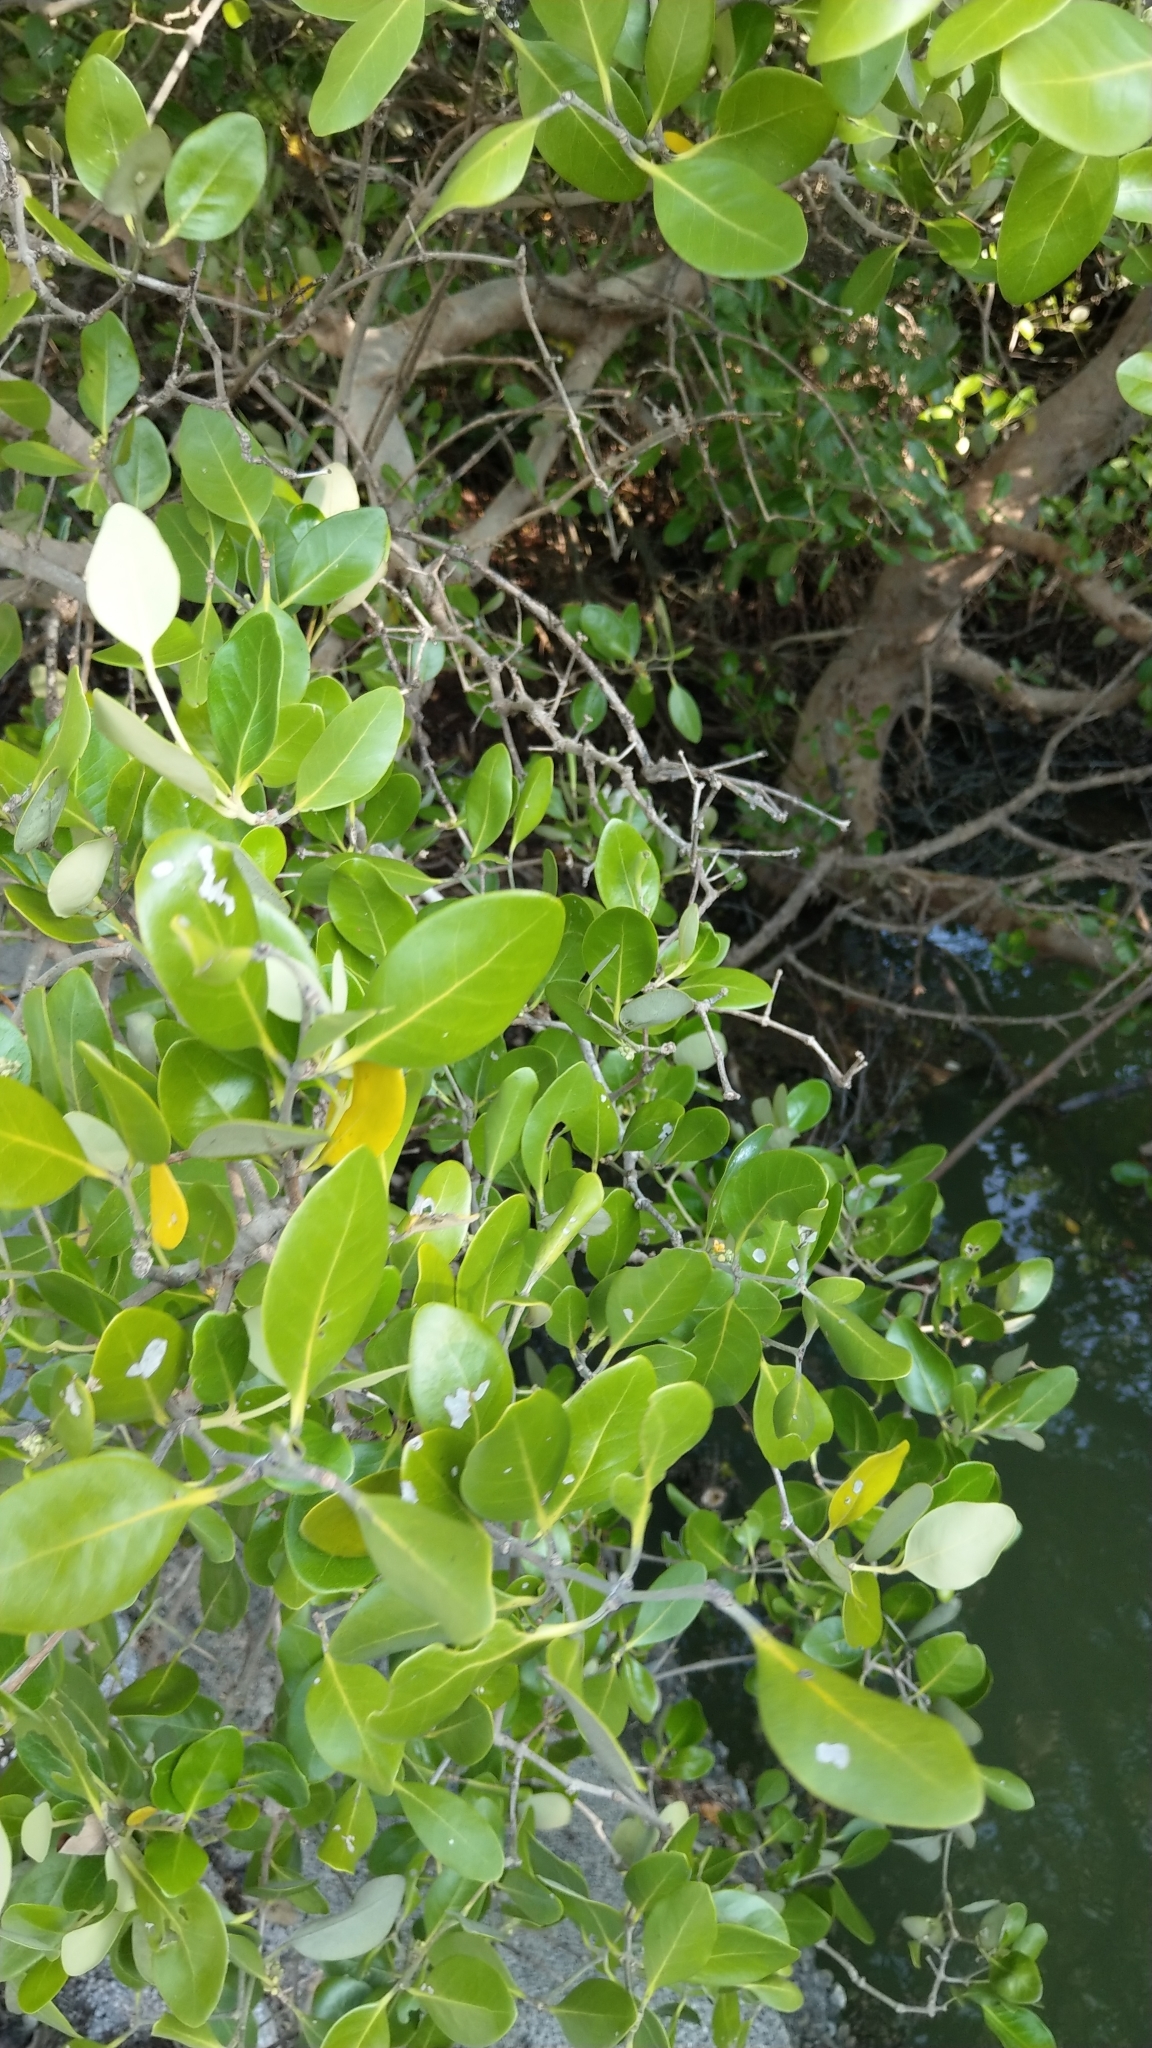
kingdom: Plantae
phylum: Tracheophyta
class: Magnoliopsida
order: Lamiales
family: Acanthaceae
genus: Avicennia
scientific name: Avicennia marina
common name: Gray mangrove
